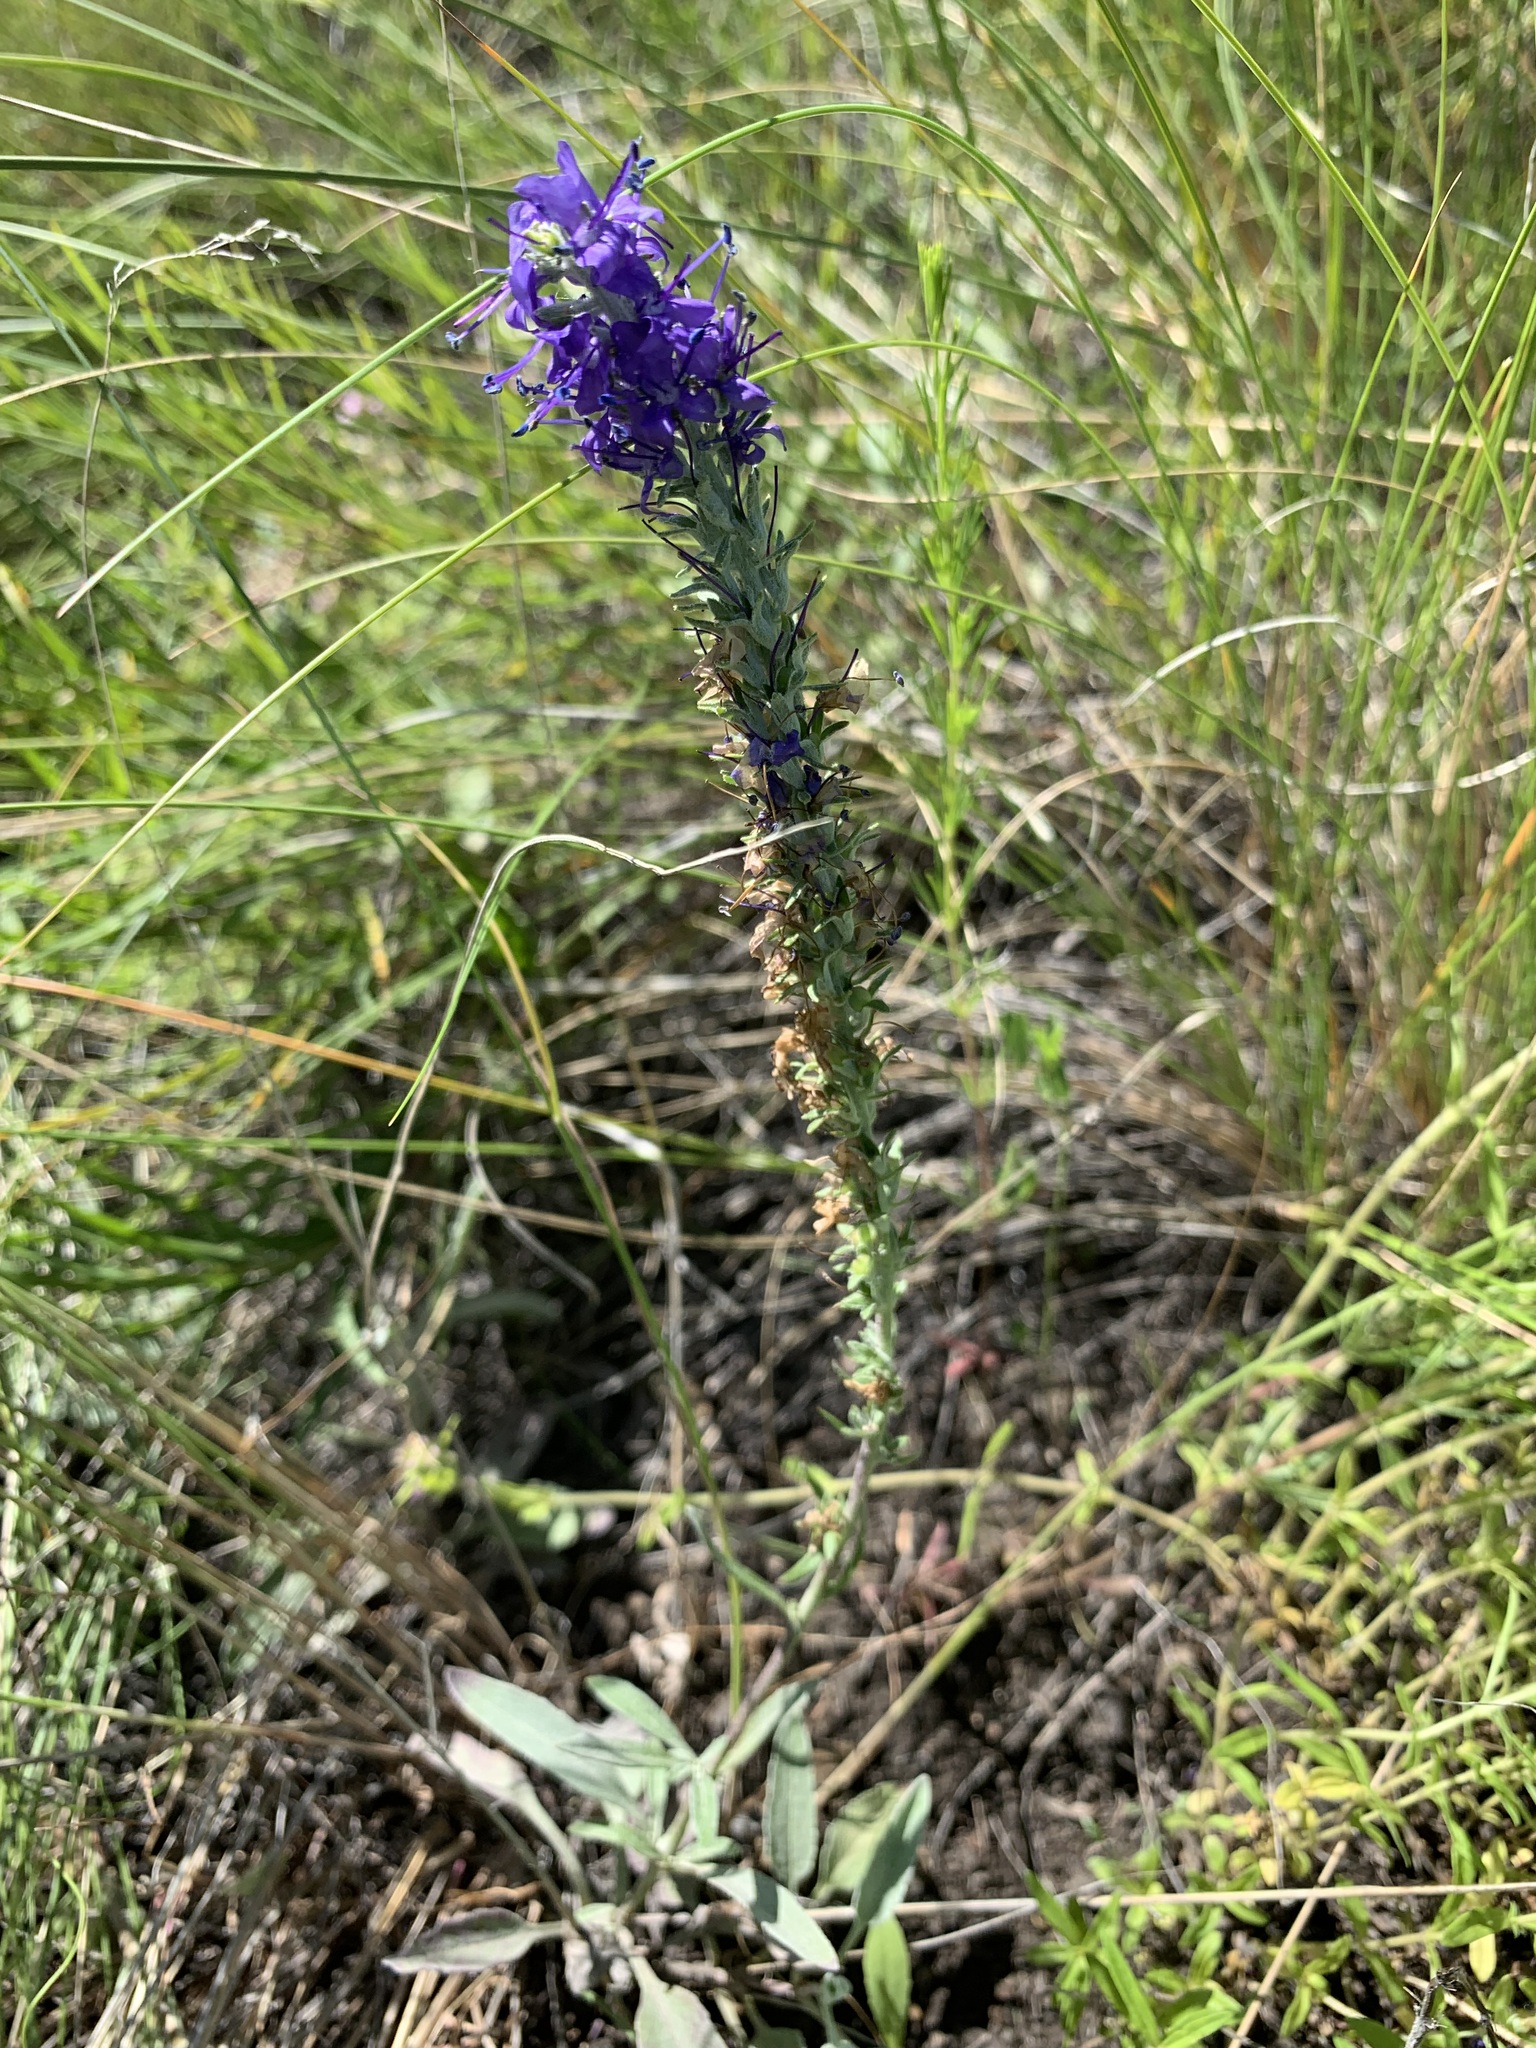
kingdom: Plantae
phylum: Tracheophyta
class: Magnoliopsida
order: Lamiales
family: Plantaginaceae
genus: Veronica
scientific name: Veronica incana
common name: Silver speedwell
